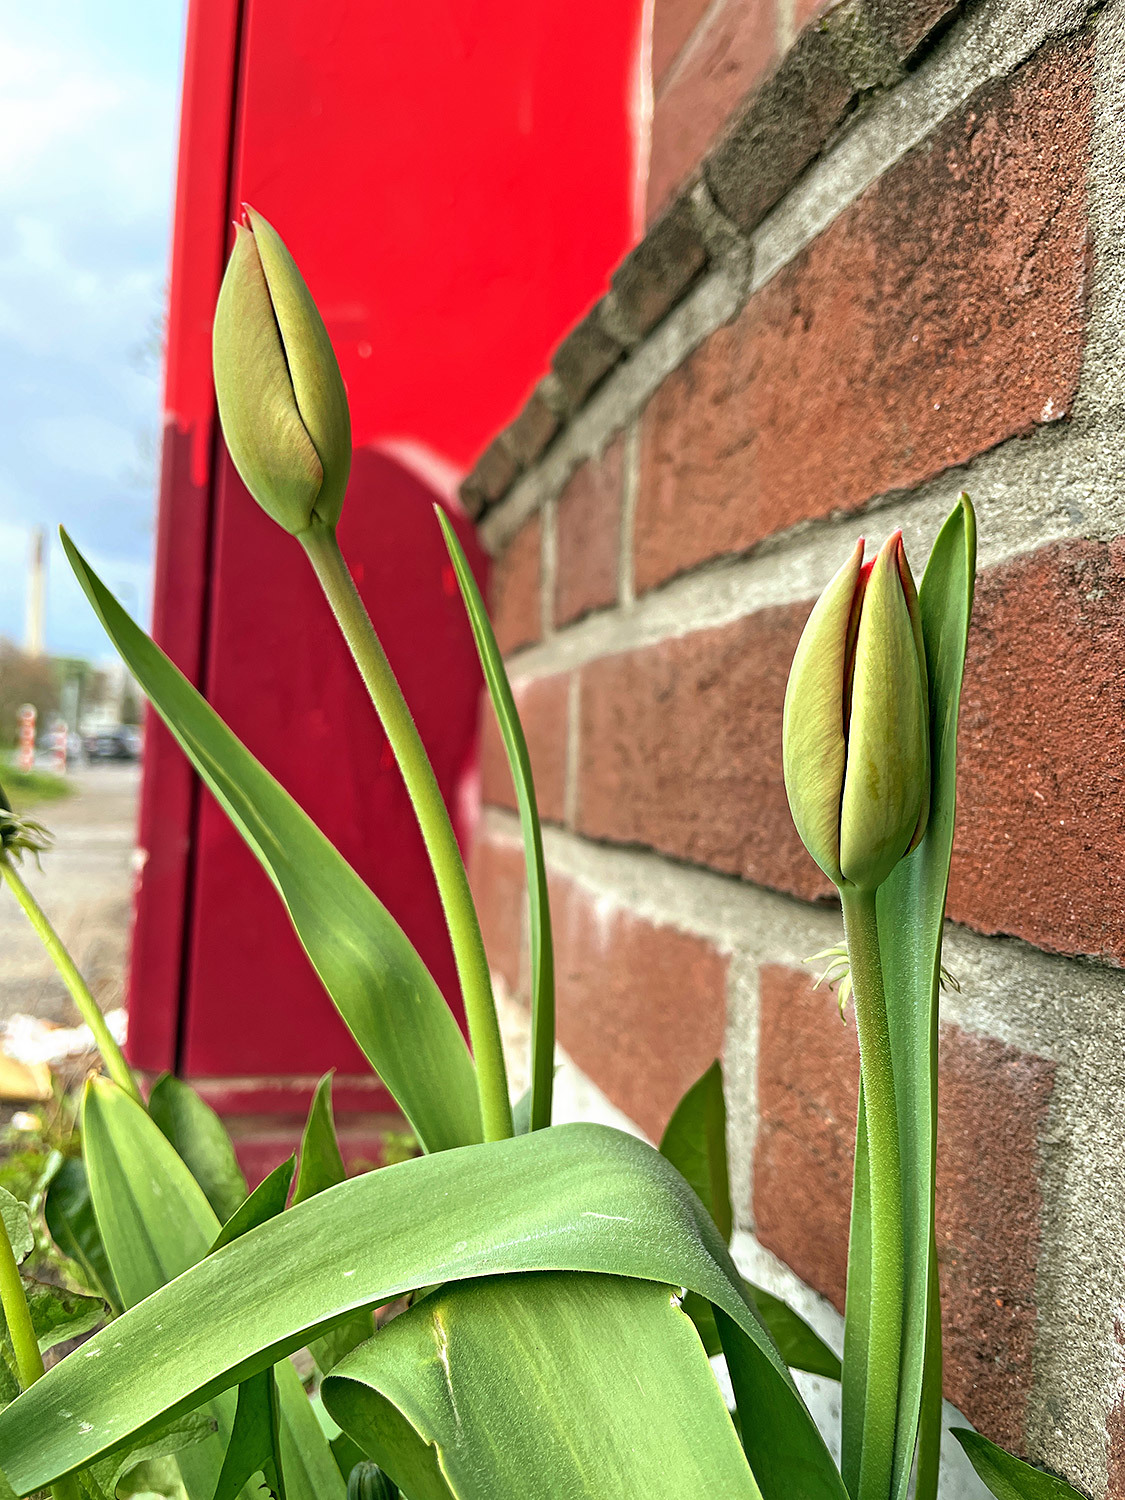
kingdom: Plantae
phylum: Tracheophyta
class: Liliopsida
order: Liliales
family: Liliaceae
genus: Tulipa
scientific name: Tulipa gesneriana
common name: Garden tulip
